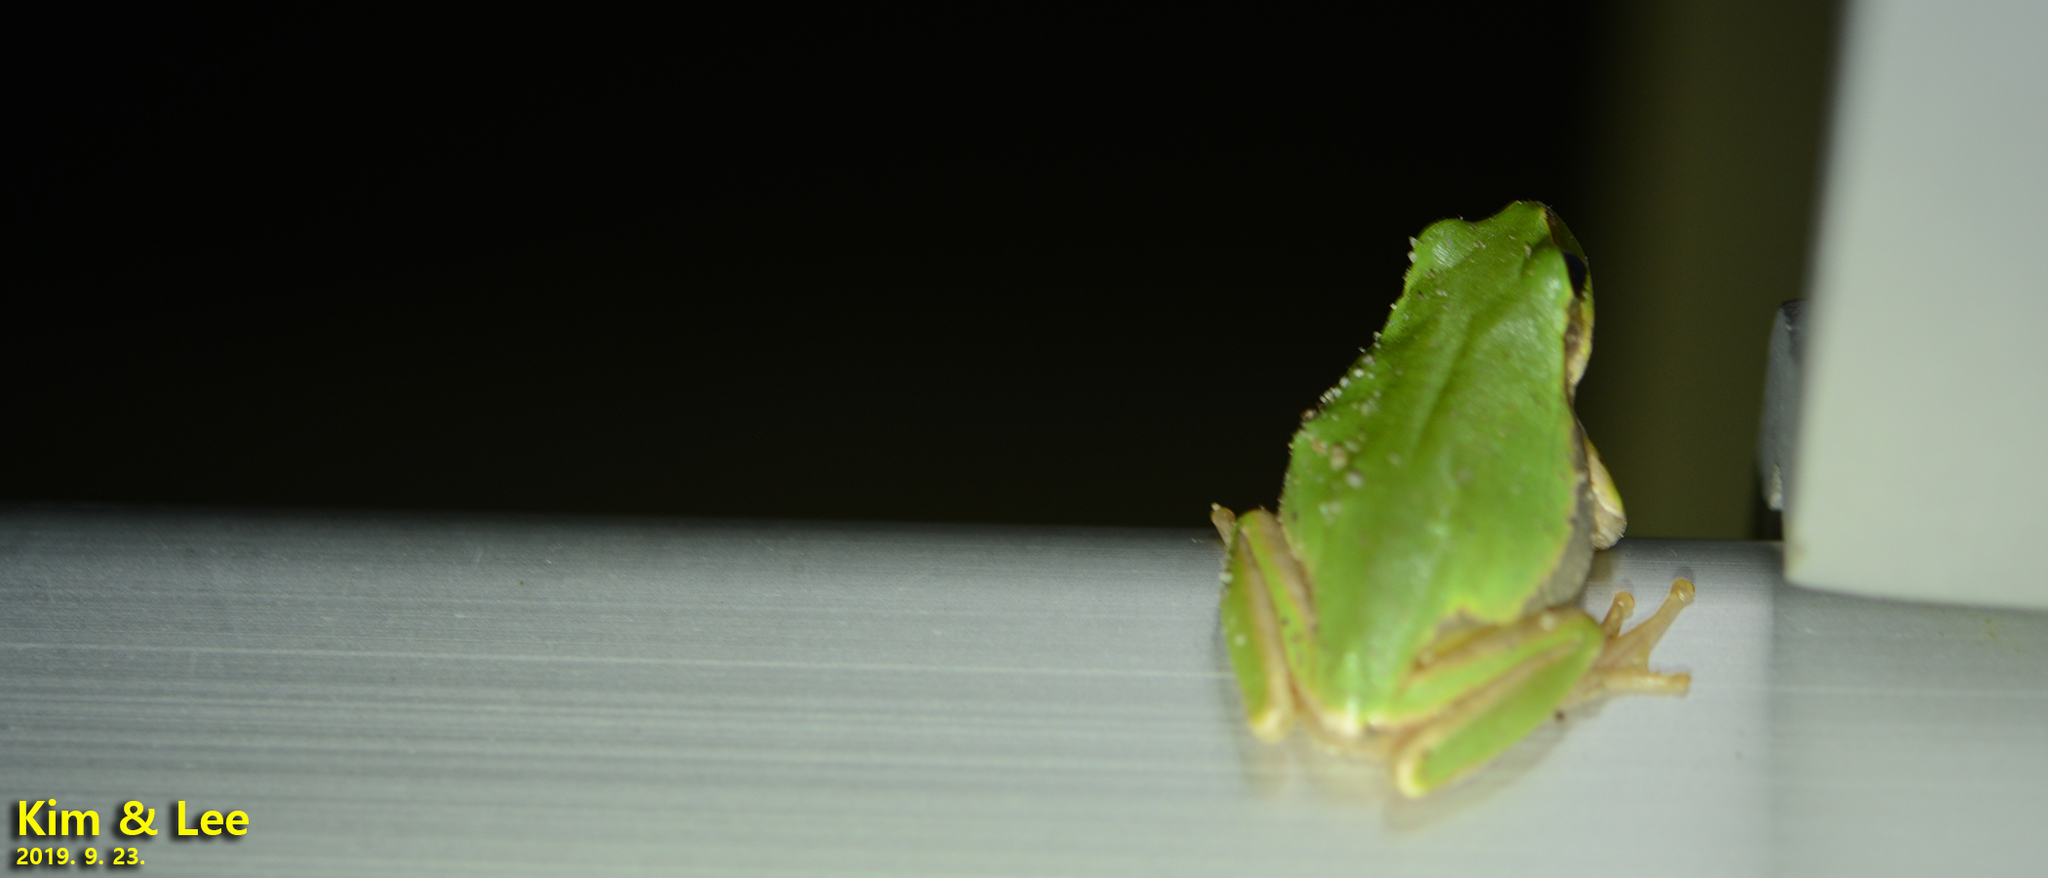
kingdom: Animalia
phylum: Chordata
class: Amphibia
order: Anura
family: Hylidae
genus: Dryophytes
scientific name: Dryophytes japonicus
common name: Japanese treefrog
